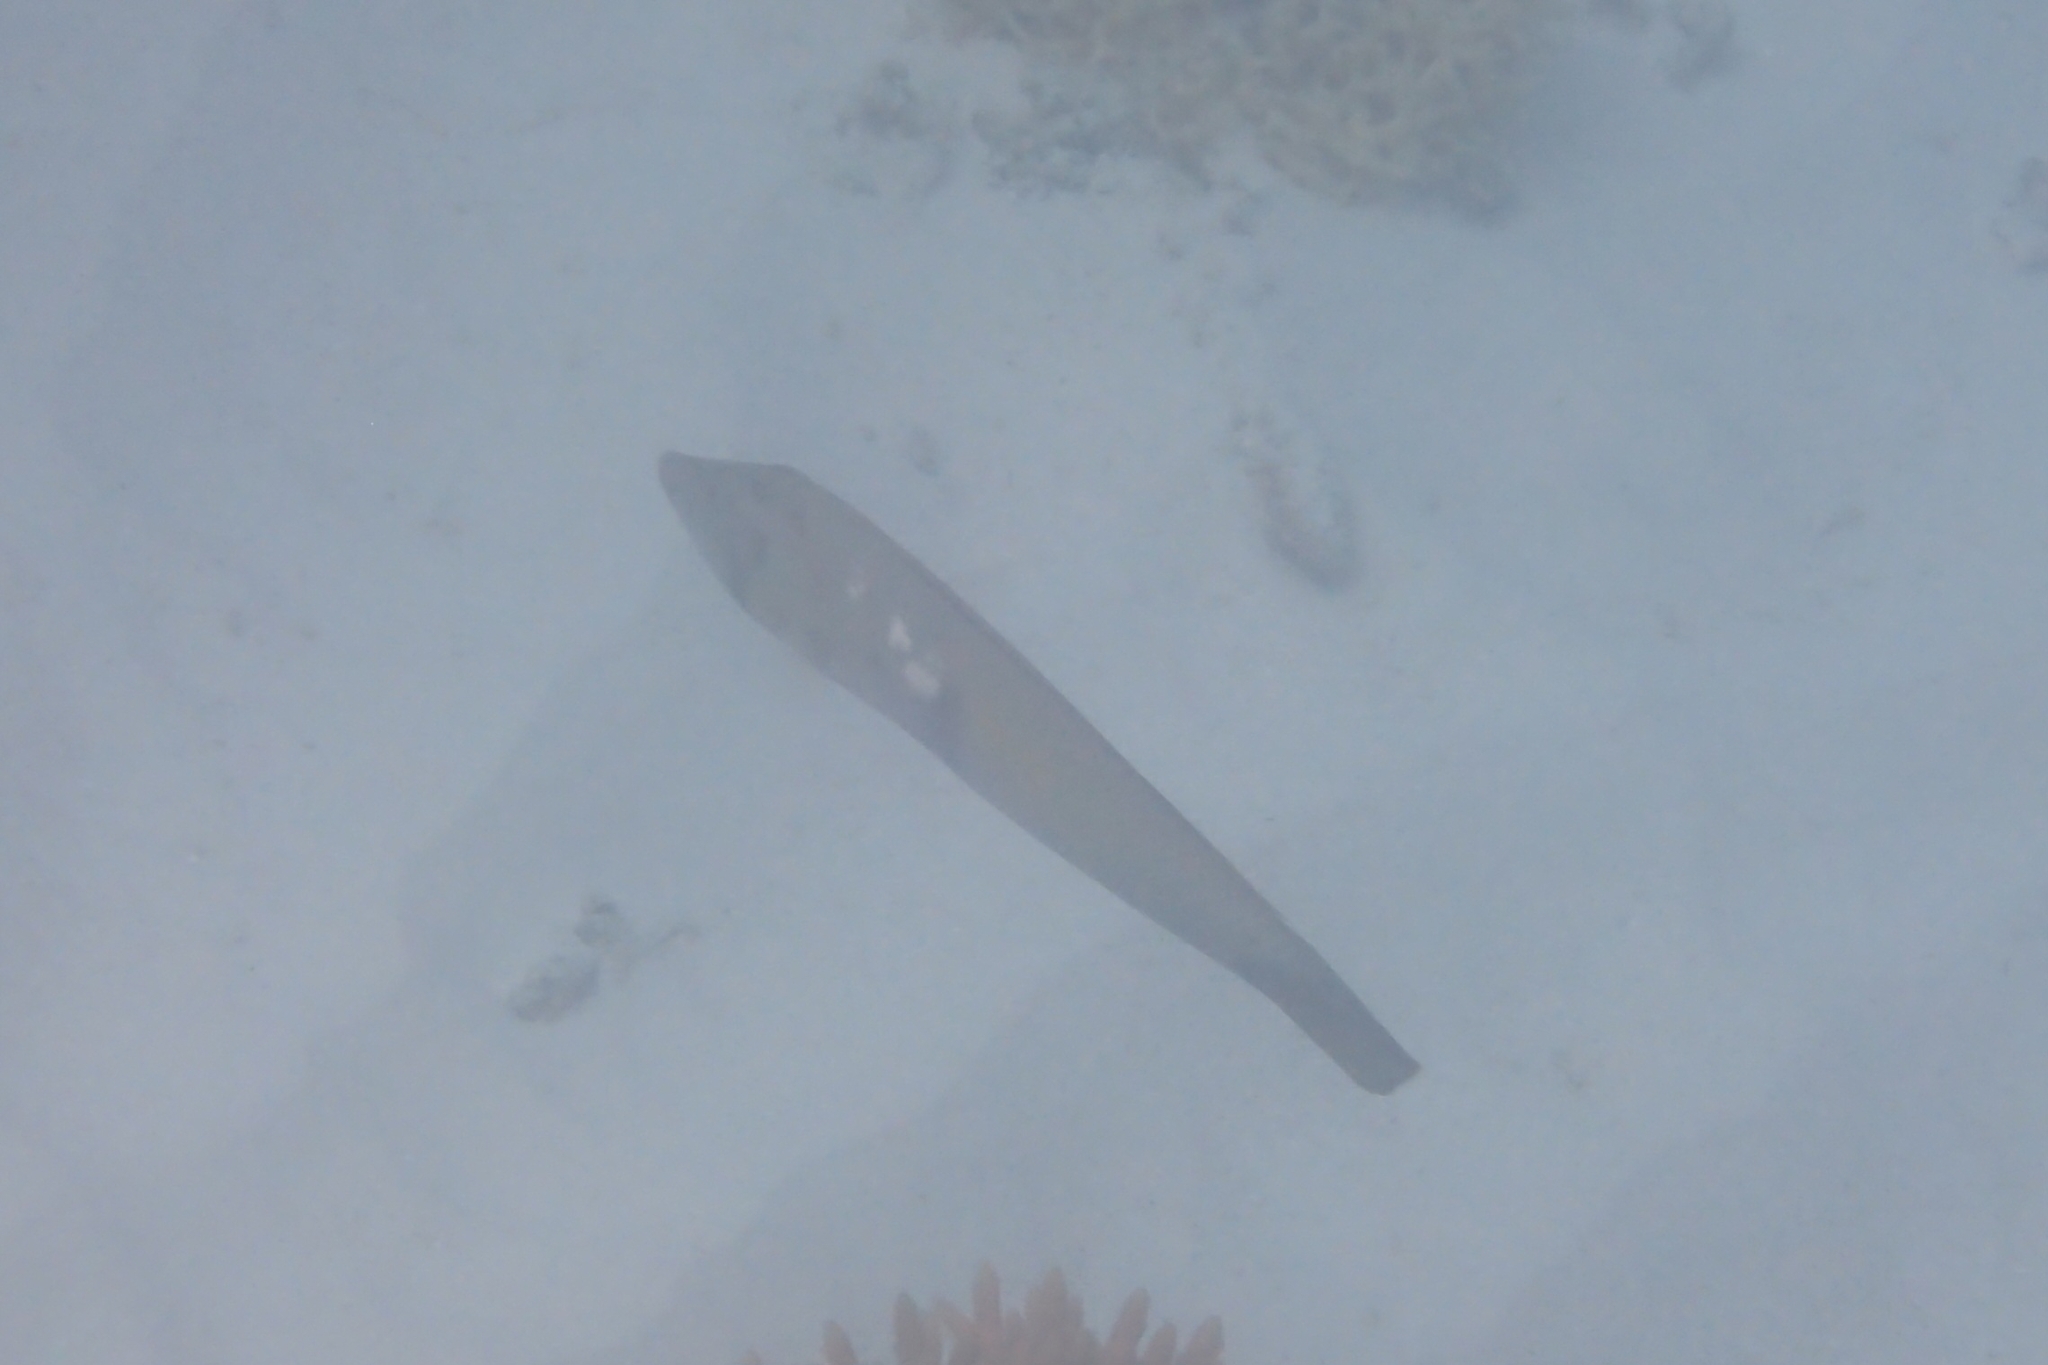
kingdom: Animalia
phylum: Chordata
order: Perciformes
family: Labridae
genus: Cheilio
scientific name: Cheilio inermis
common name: Cigar wrasse
